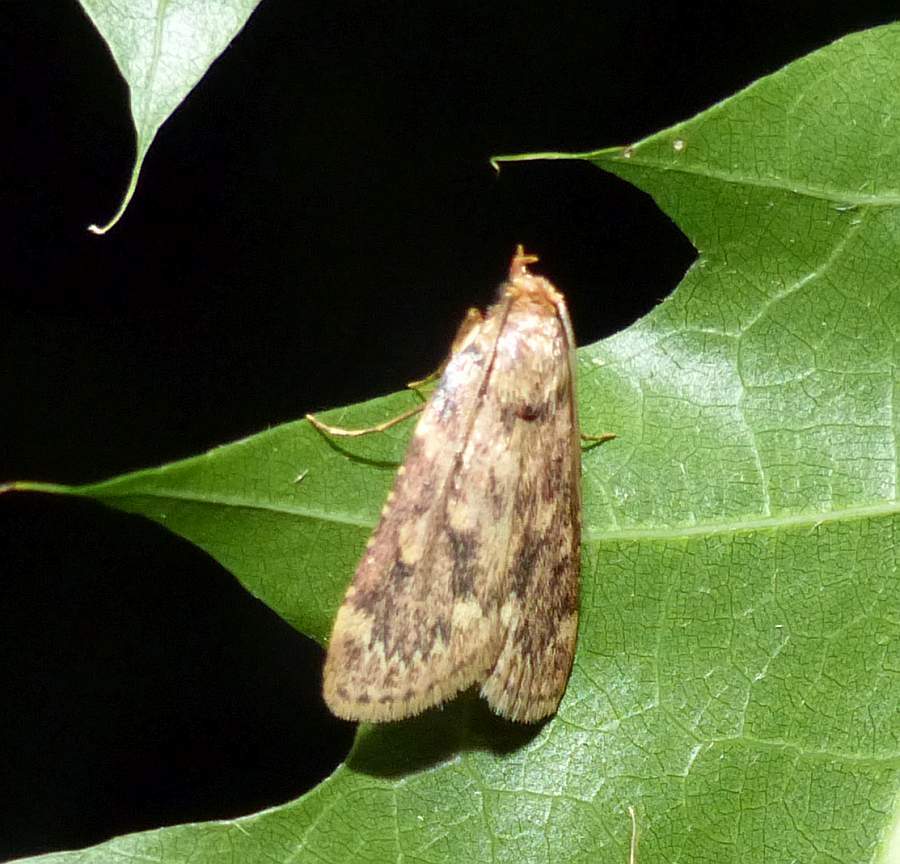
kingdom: Animalia
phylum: Arthropoda
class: Insecta
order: Lepidoptera
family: Pyralidae
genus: Aglossa
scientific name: Aglossa cuprina
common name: Grease moth
